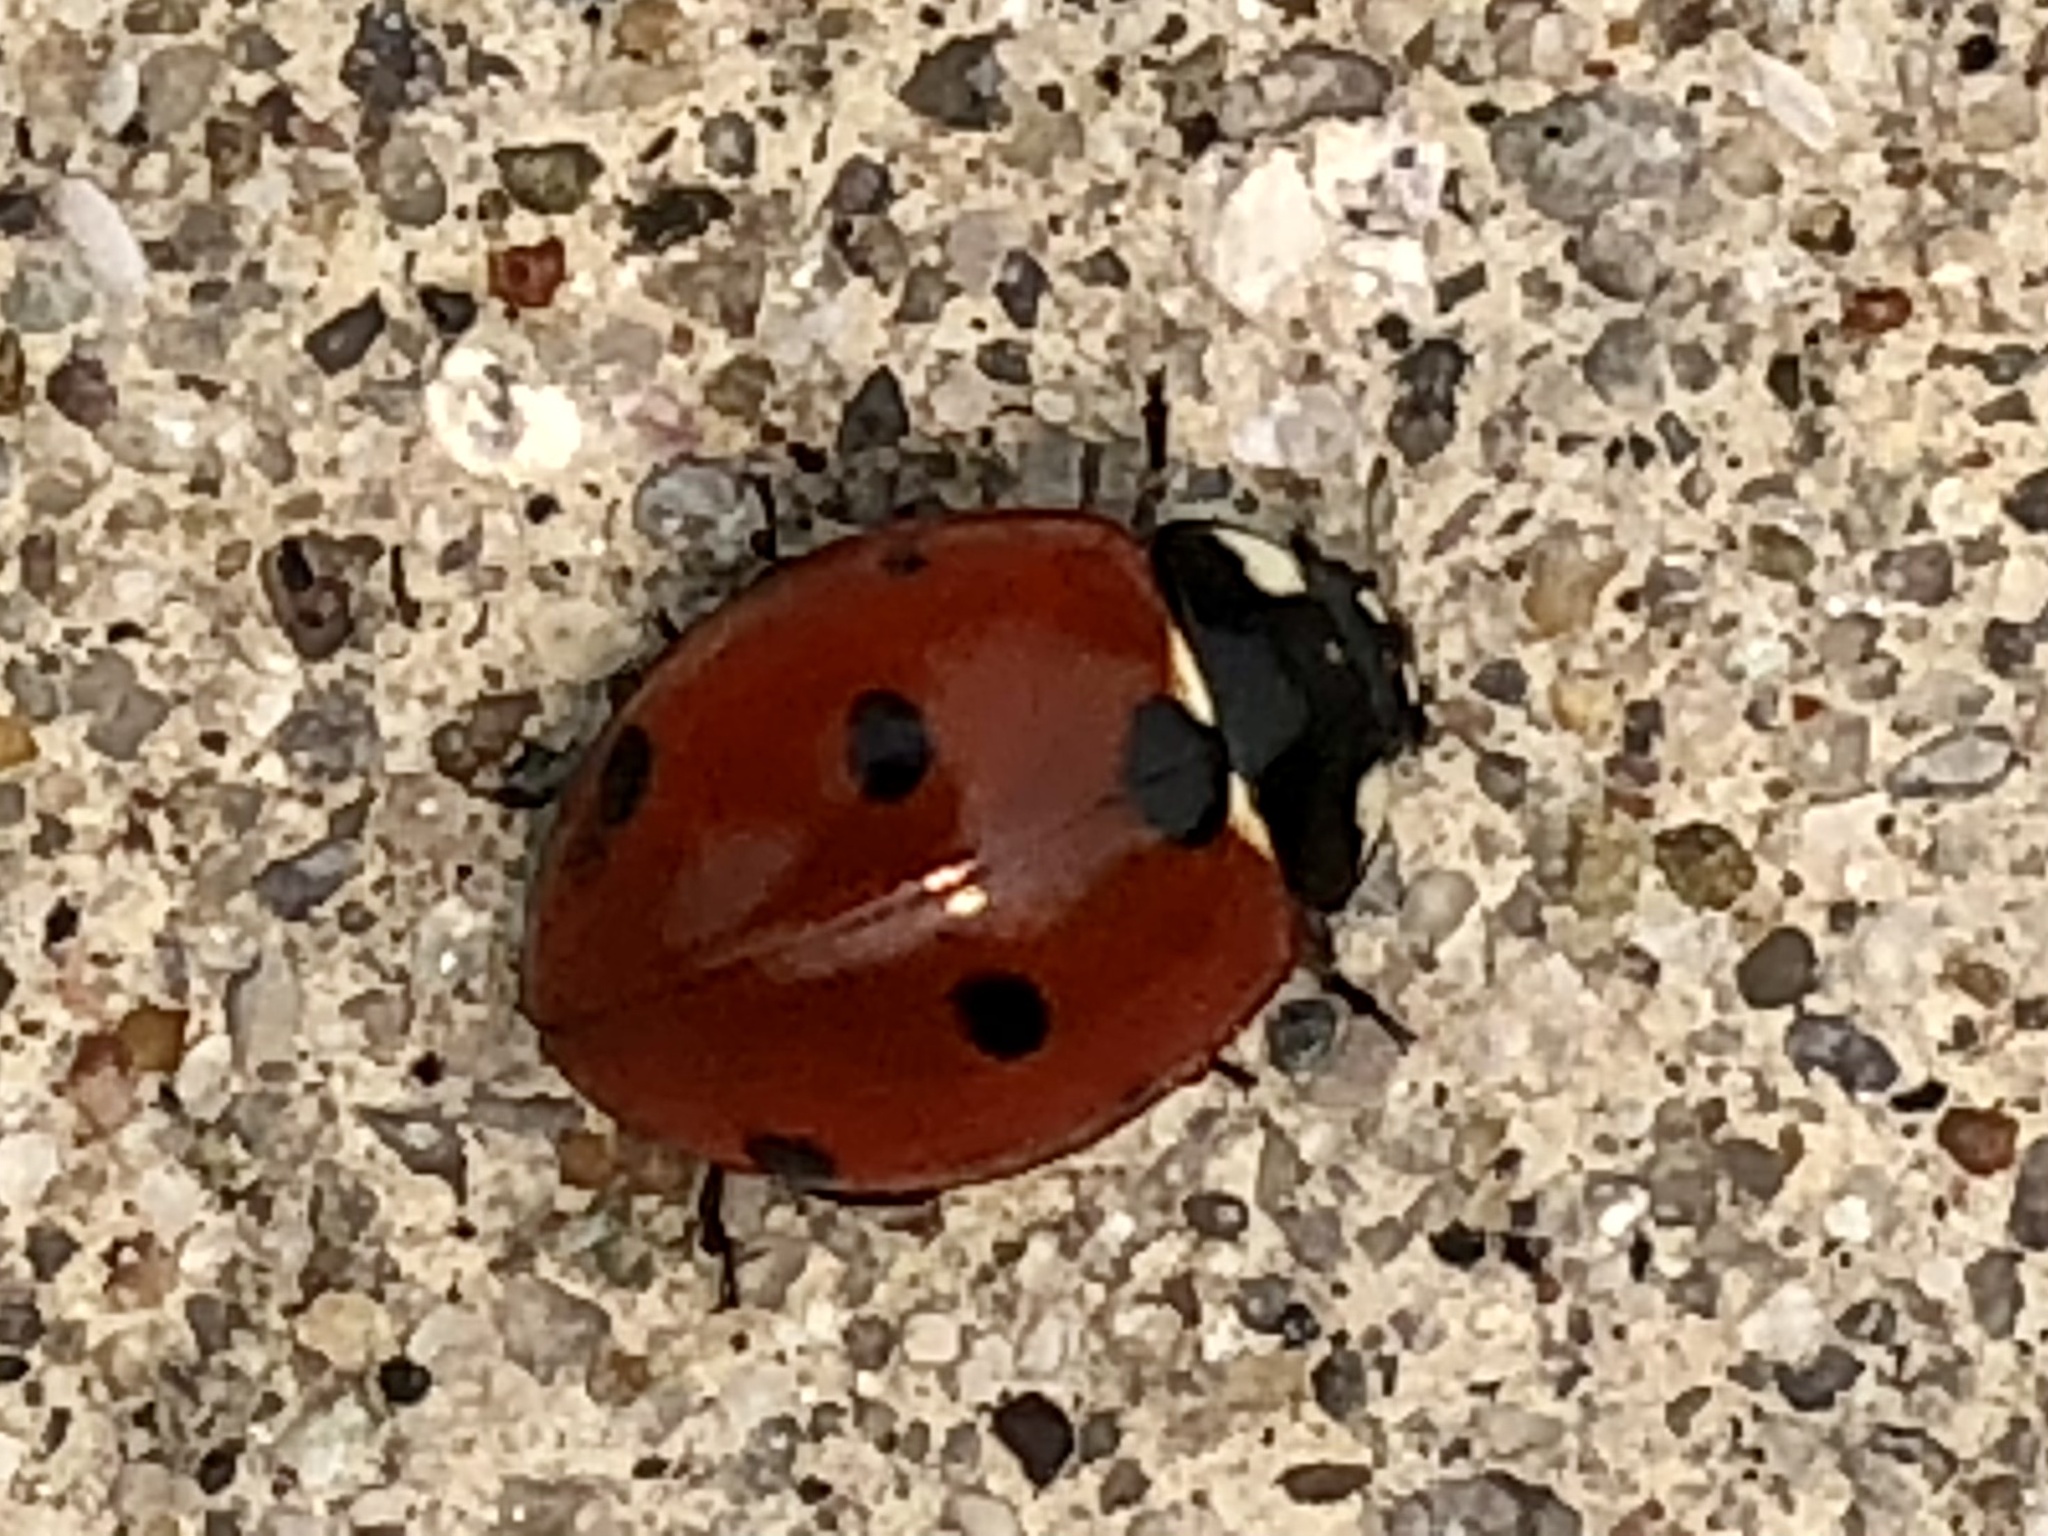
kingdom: Animalia
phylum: Arthropoda
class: Insecta
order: Coleoptera
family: Coccinellidae
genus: Coccinella
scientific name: Coccinella septempunctata
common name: Sevenspotted lady beetle
